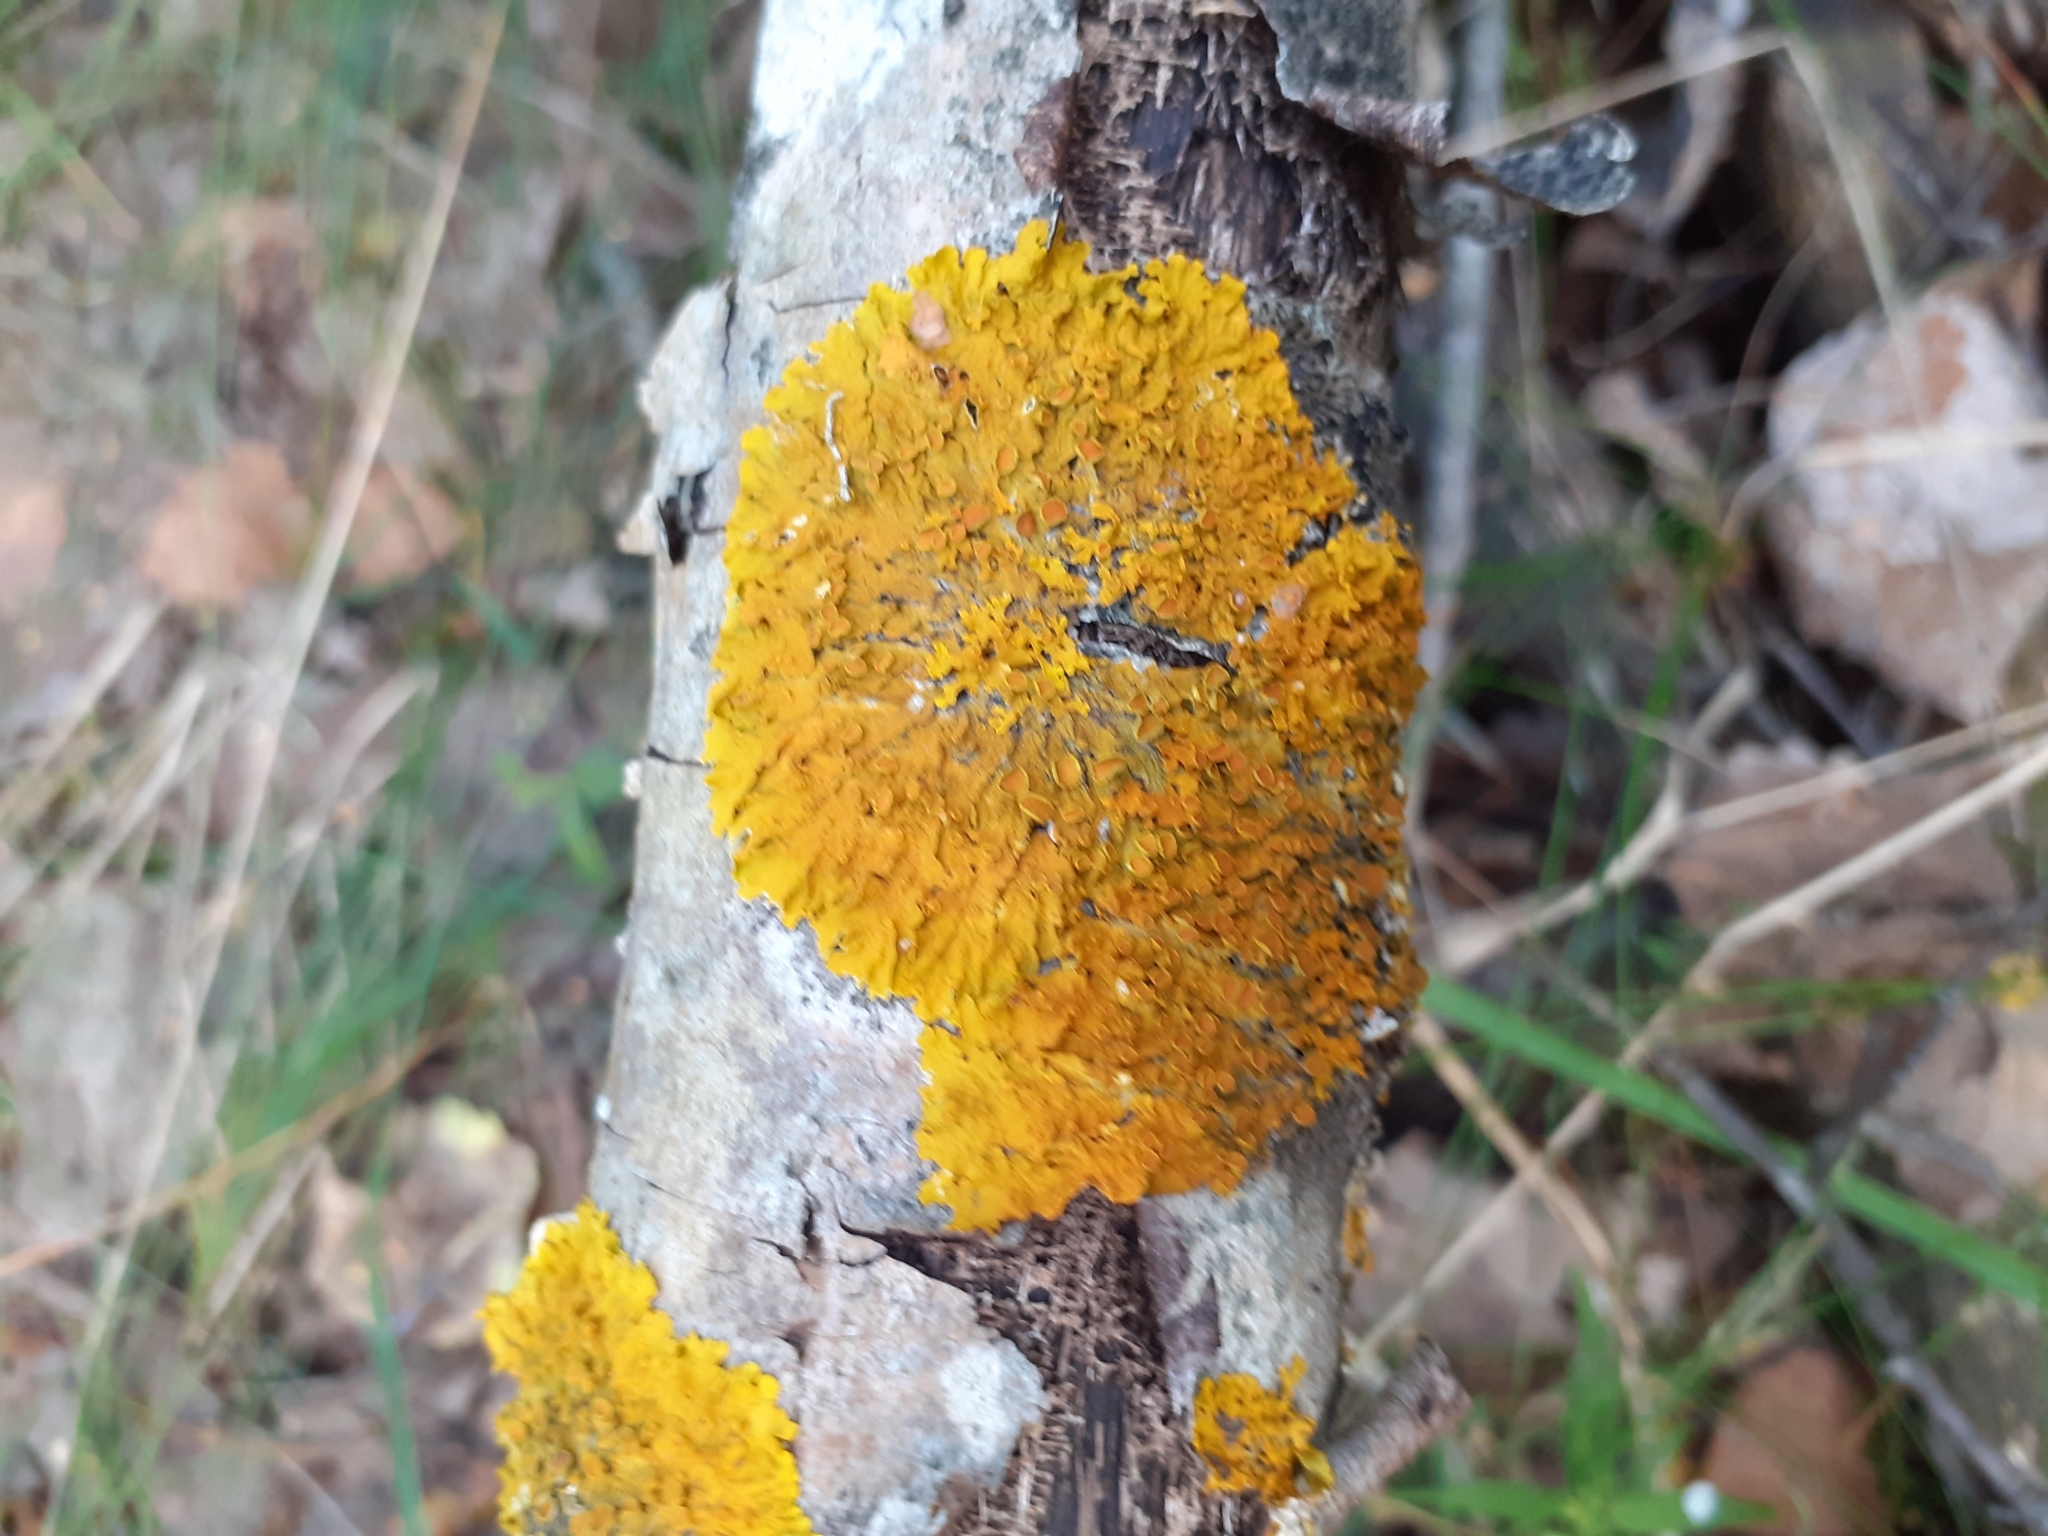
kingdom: Fungi
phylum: Ascomycota
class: Lecanoromycetes
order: Teloschistales
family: Teloschistaceae
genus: Xanthoria
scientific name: Xanthoria parietina
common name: Common orange lichen
